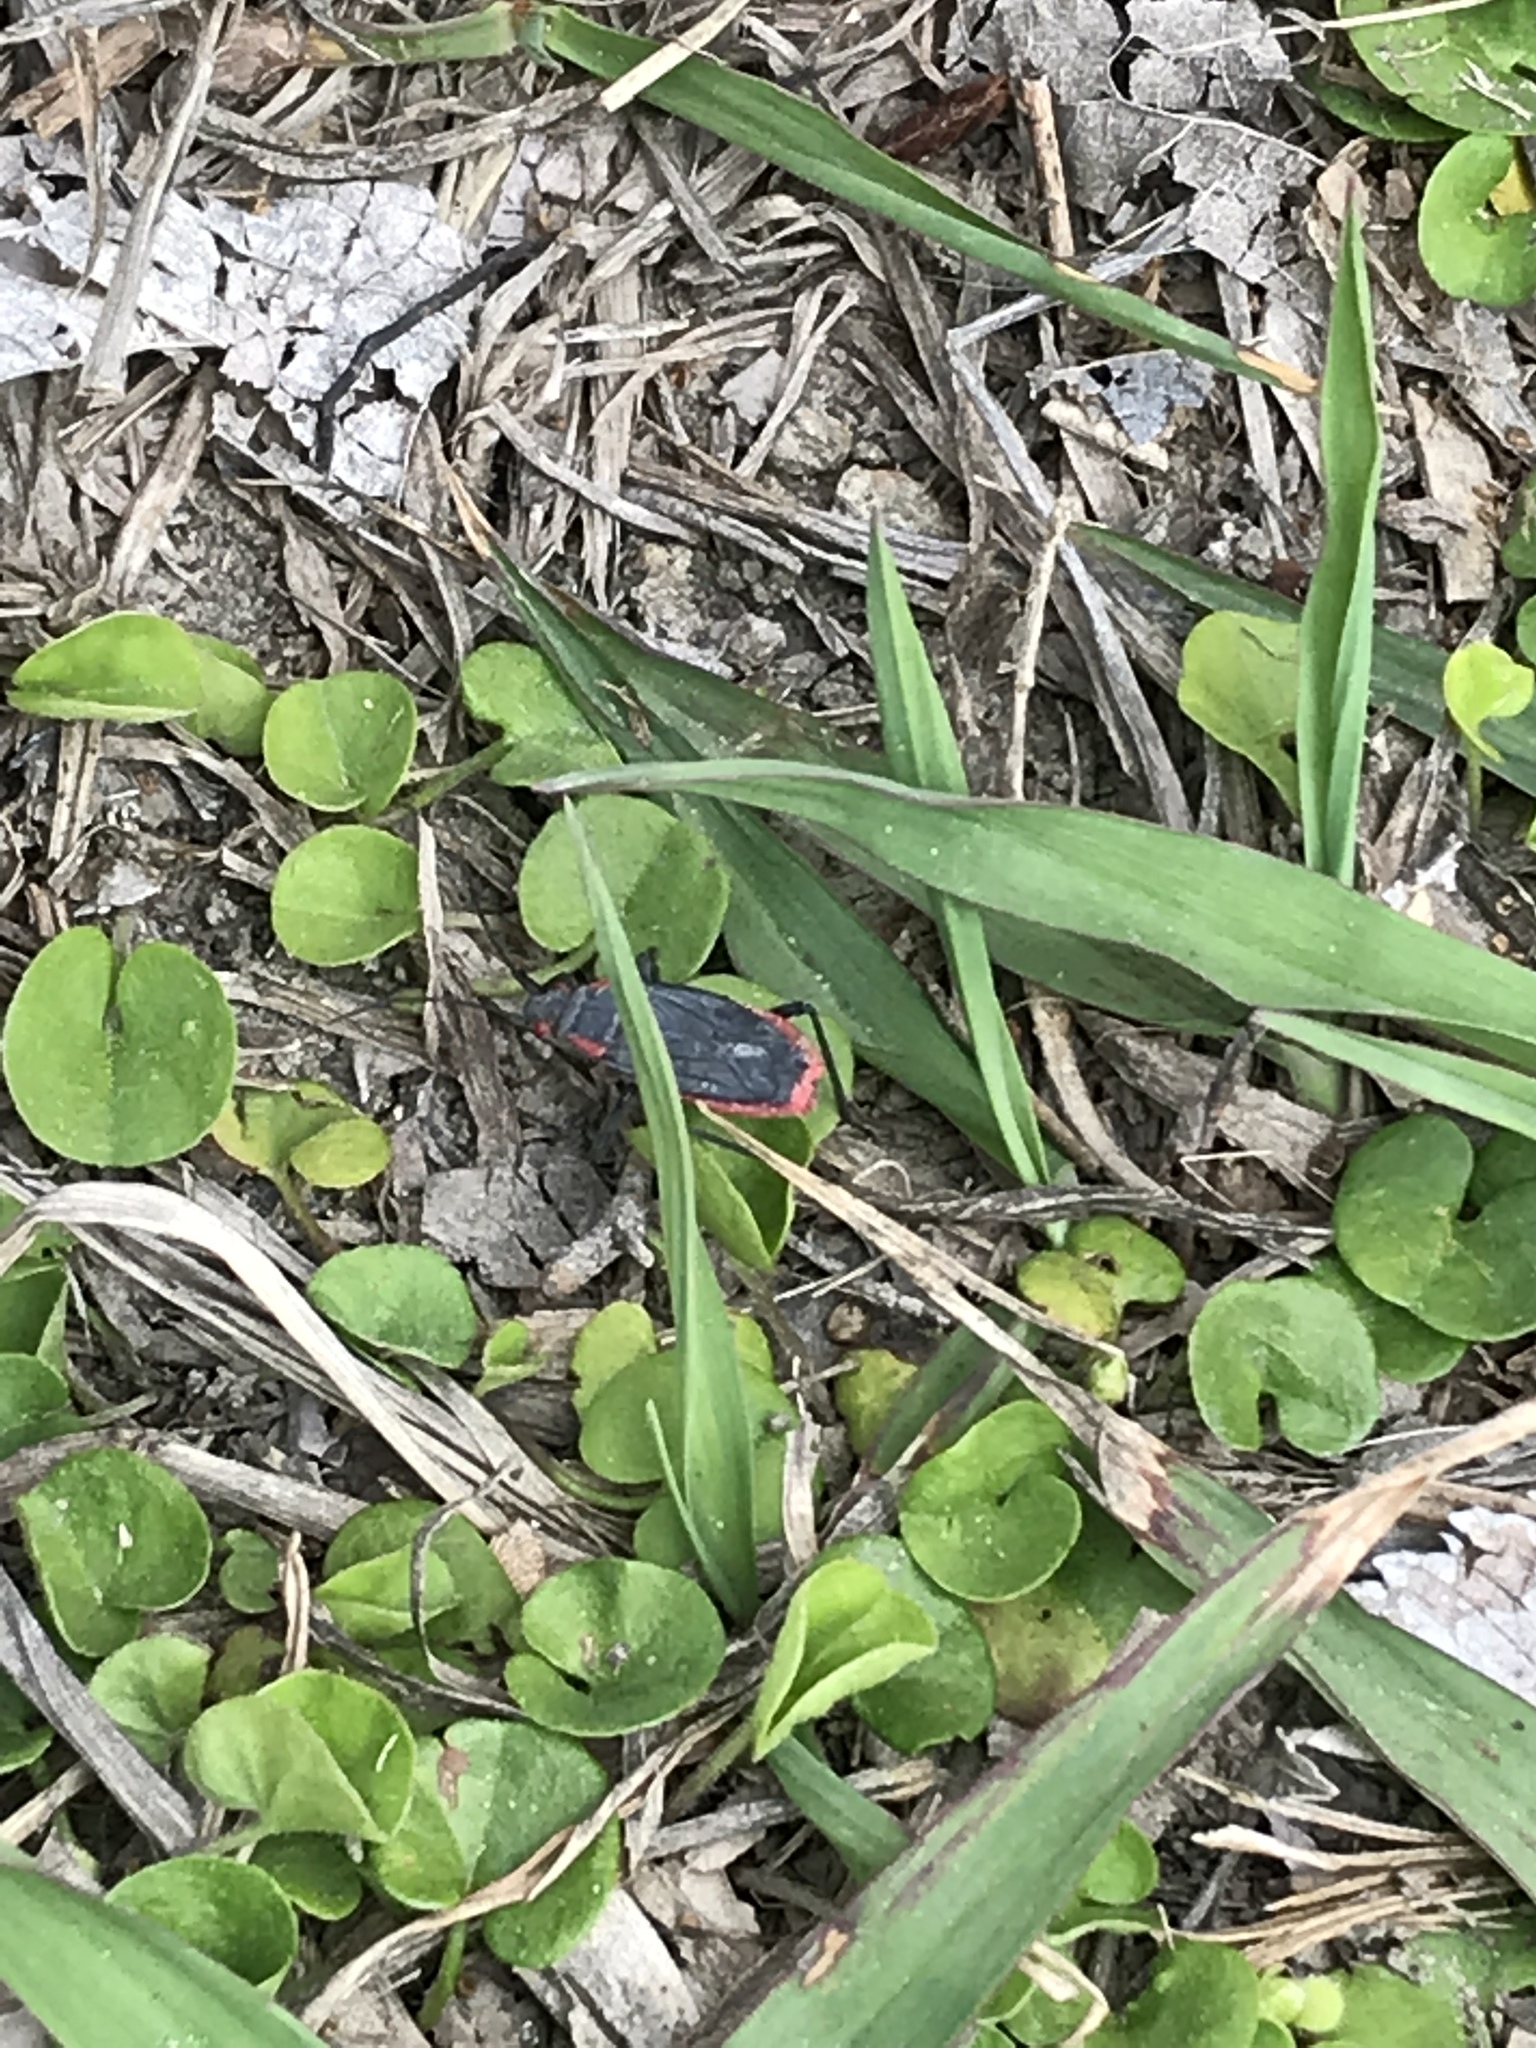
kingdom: Animalia
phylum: Arthropoda
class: Insecta
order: Hemiptera
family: Rhopalidae
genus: Jadera
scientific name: Jadera haematoloma
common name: Red-shouldered bug
